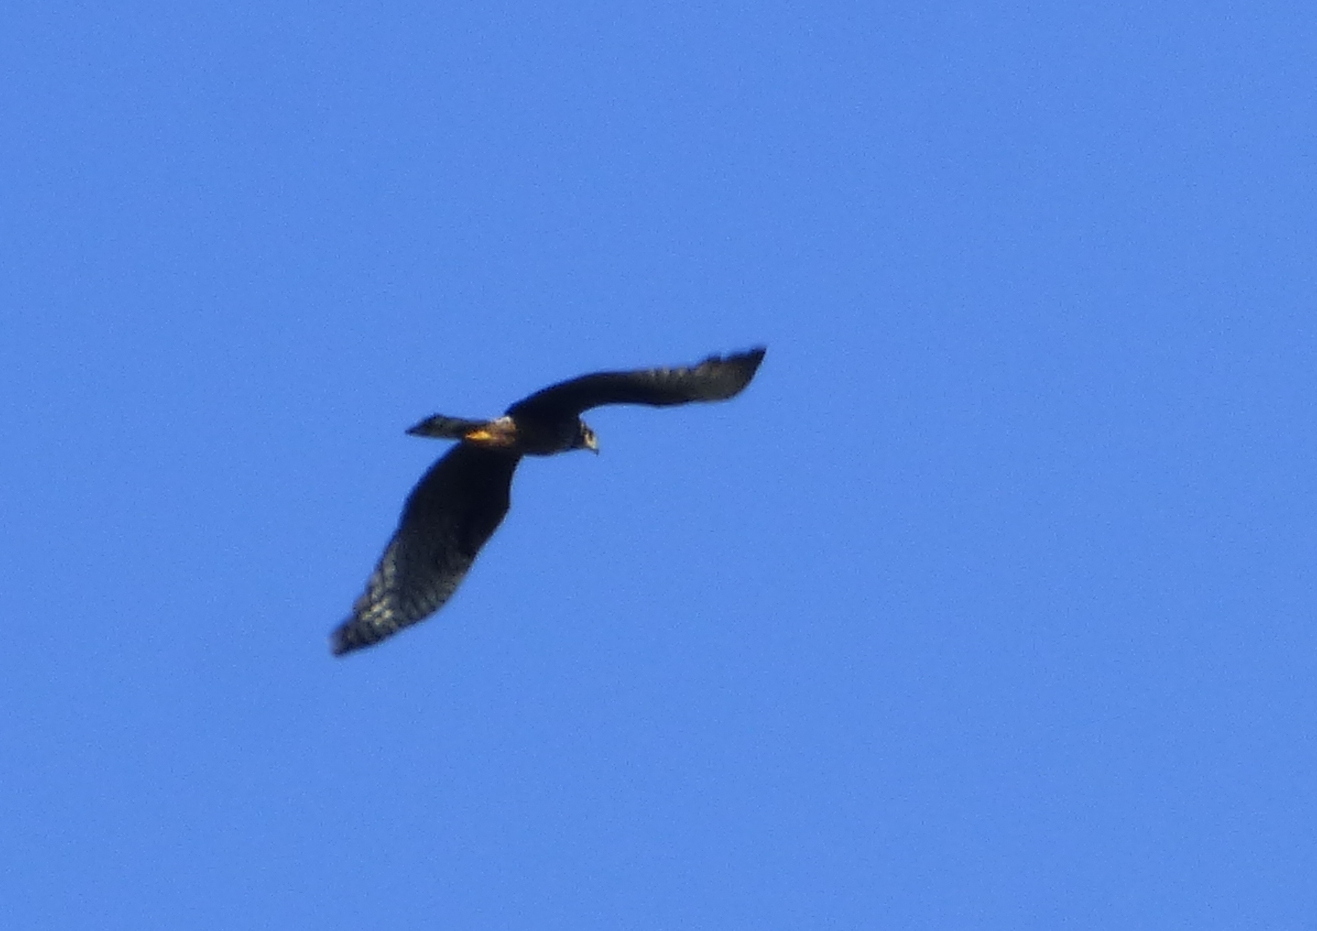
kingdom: Animalia
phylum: Chordata
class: Aves
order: Accipitriformes
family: Accipitridae
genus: Circus
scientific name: Circus buffoni
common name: Long-winged harrier
